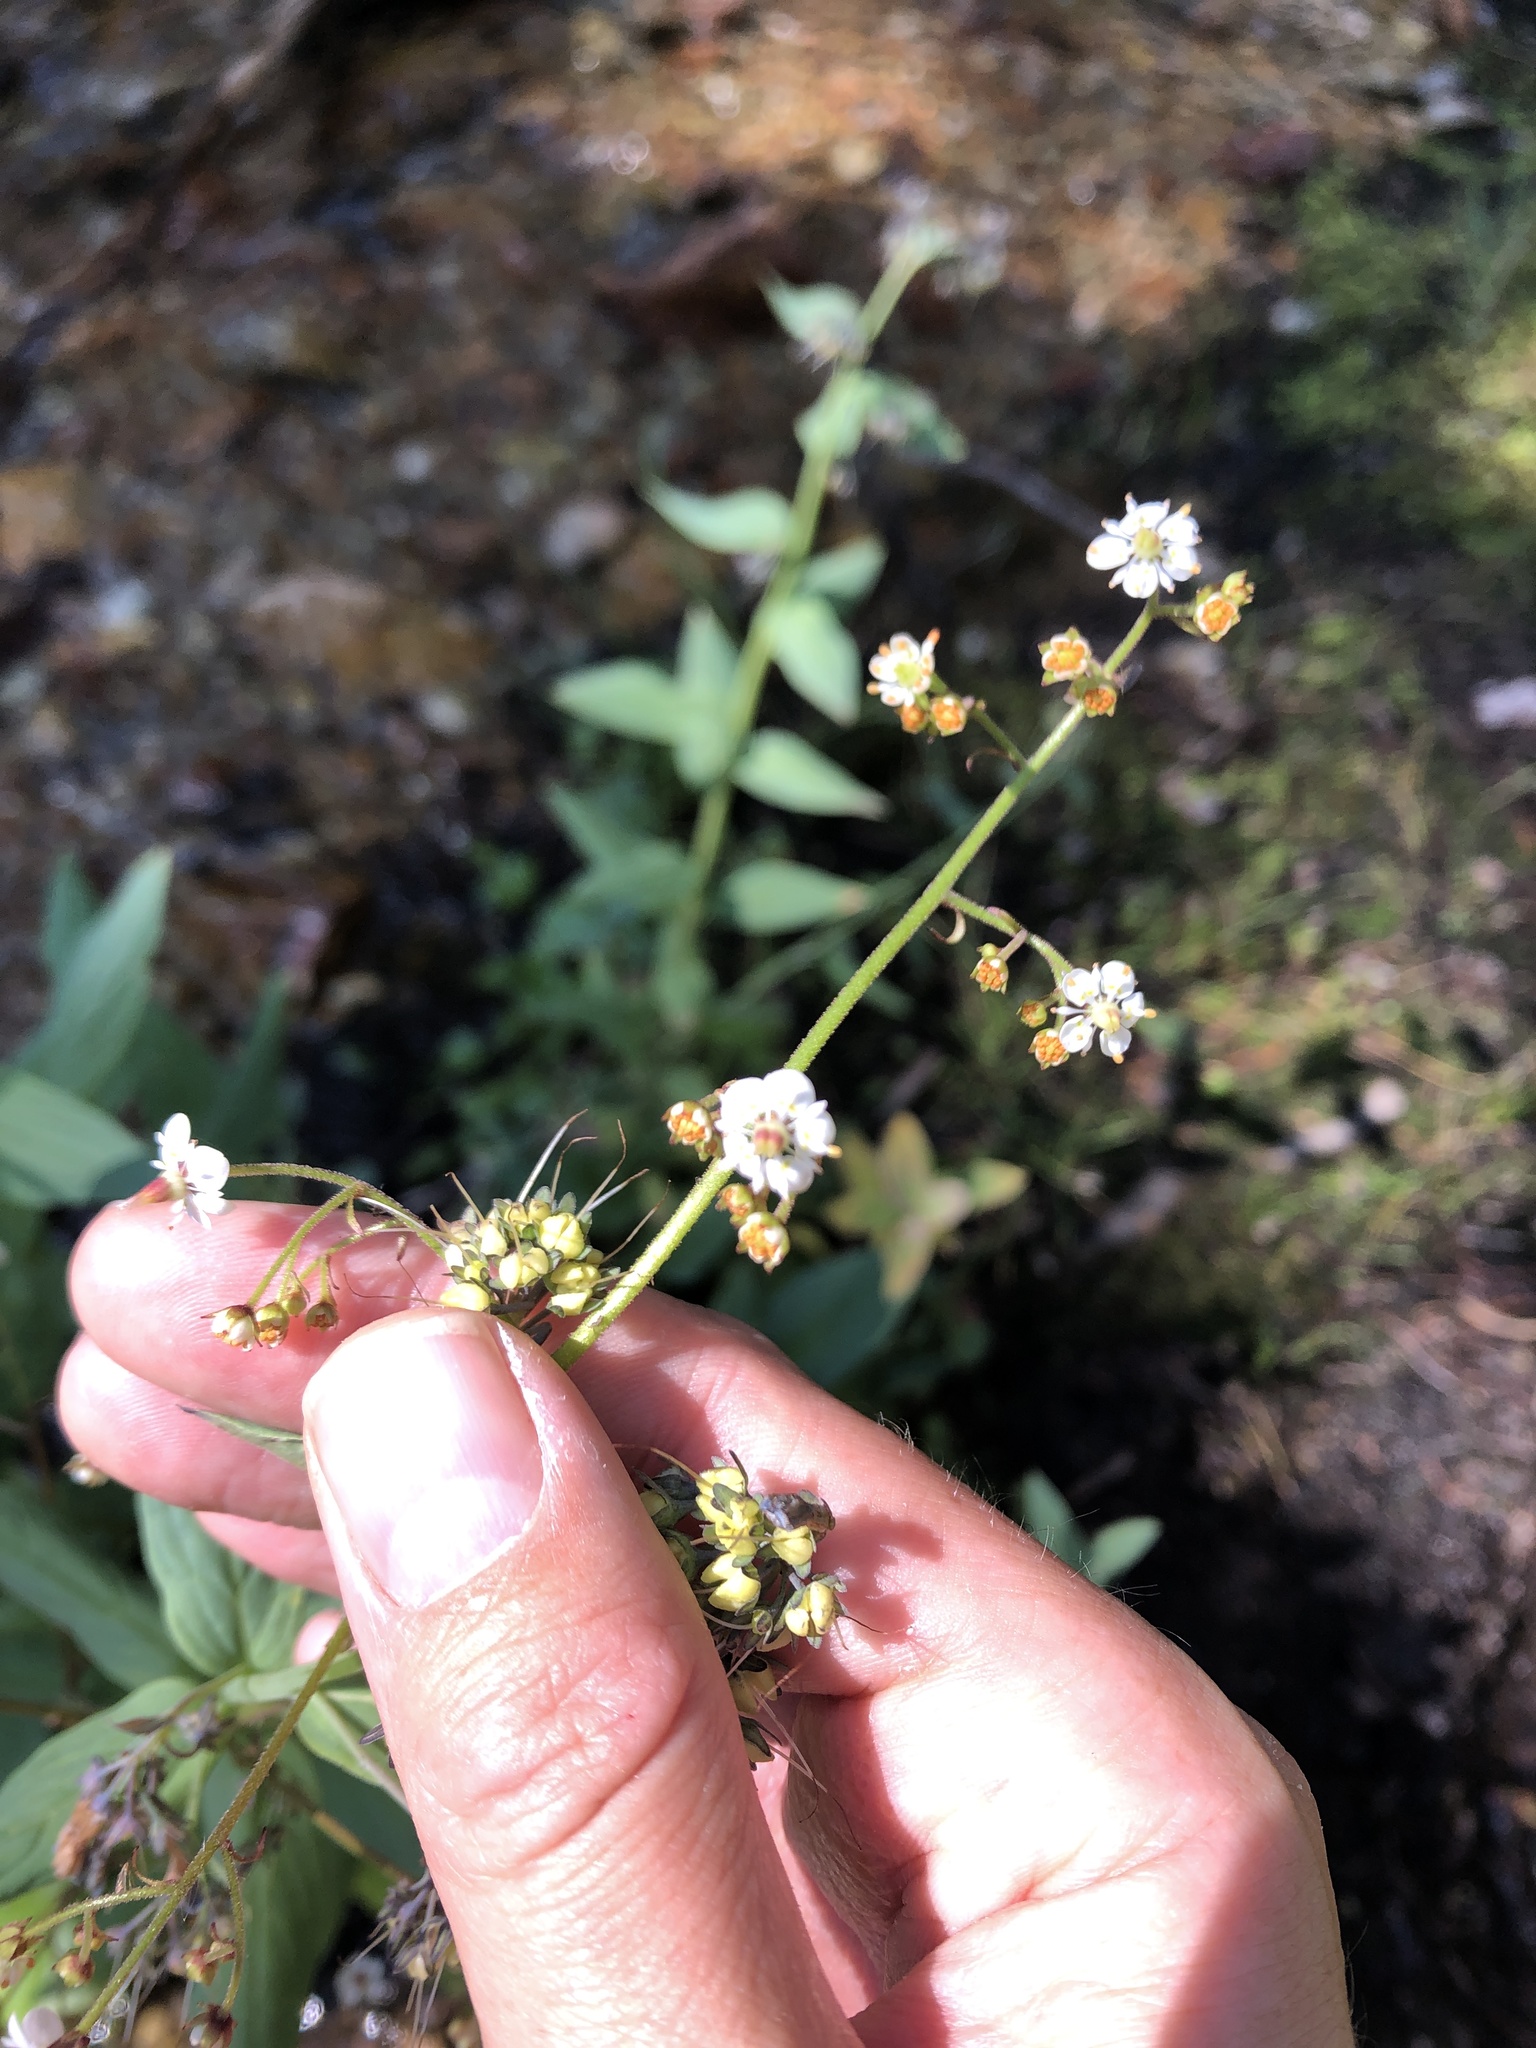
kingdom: Plantae
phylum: Tracheophyta
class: Magnoliopsida
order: Saxifragales
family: Saxifragaceae
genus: Micranthes
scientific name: Micranthes odontoloma
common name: Brook saxifrage
